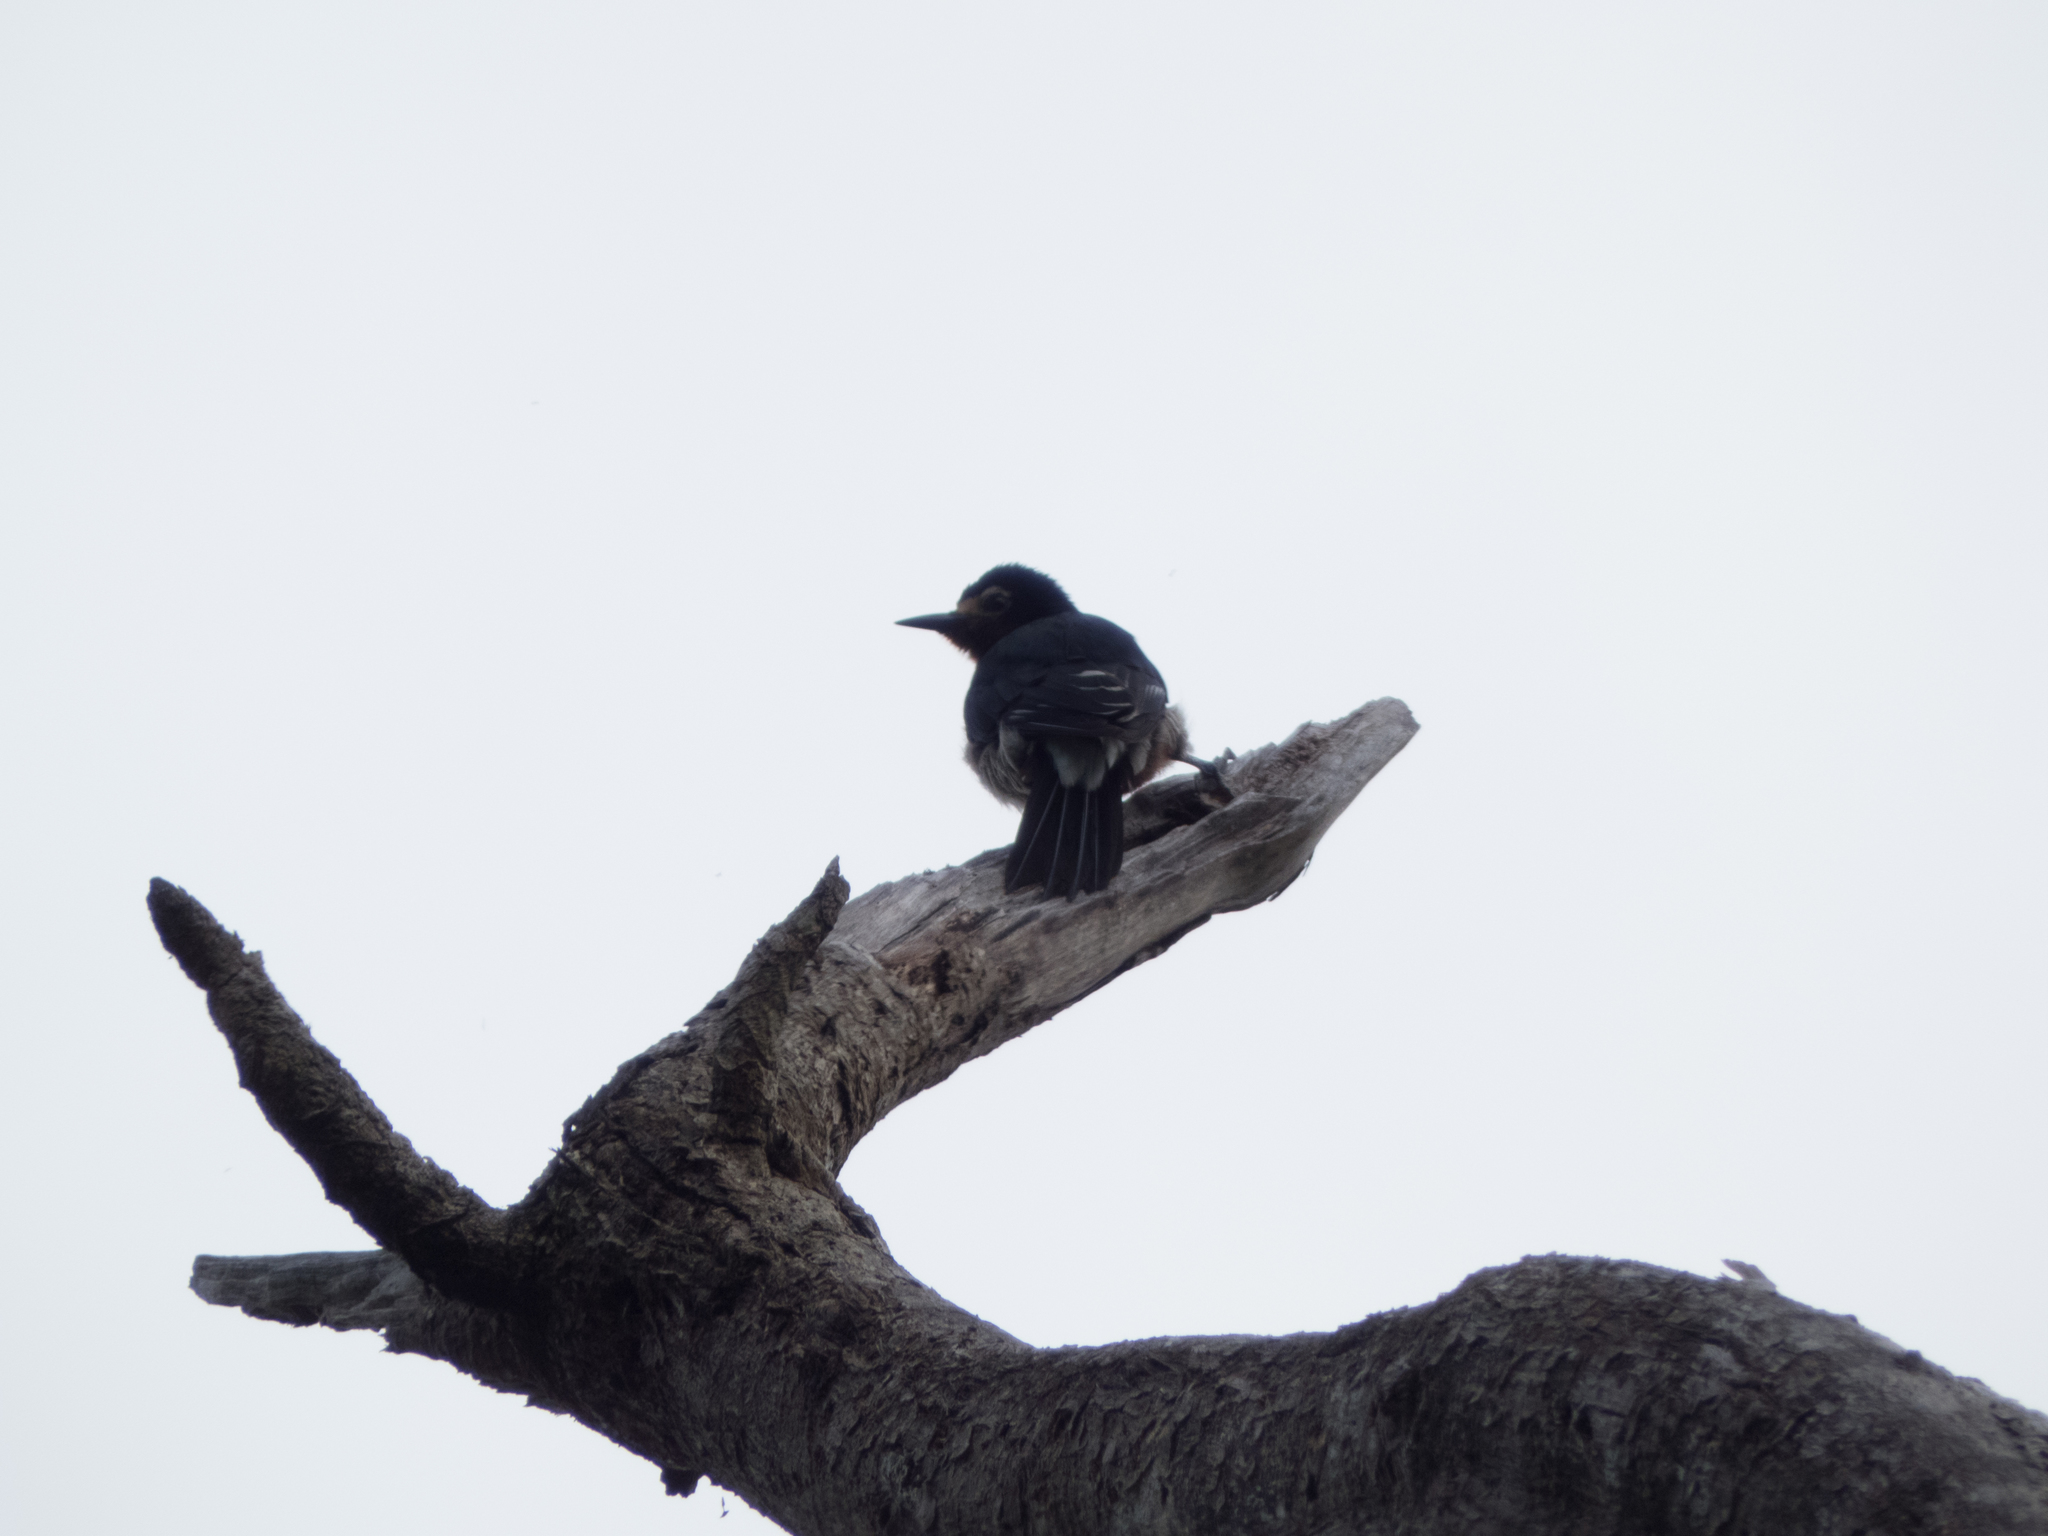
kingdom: Animalia
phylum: Chordata
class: Aves
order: Piciformes
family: Picidae
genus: Melanerpes
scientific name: Melanerpes portoricensis
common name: Puerto rican woodpecker
